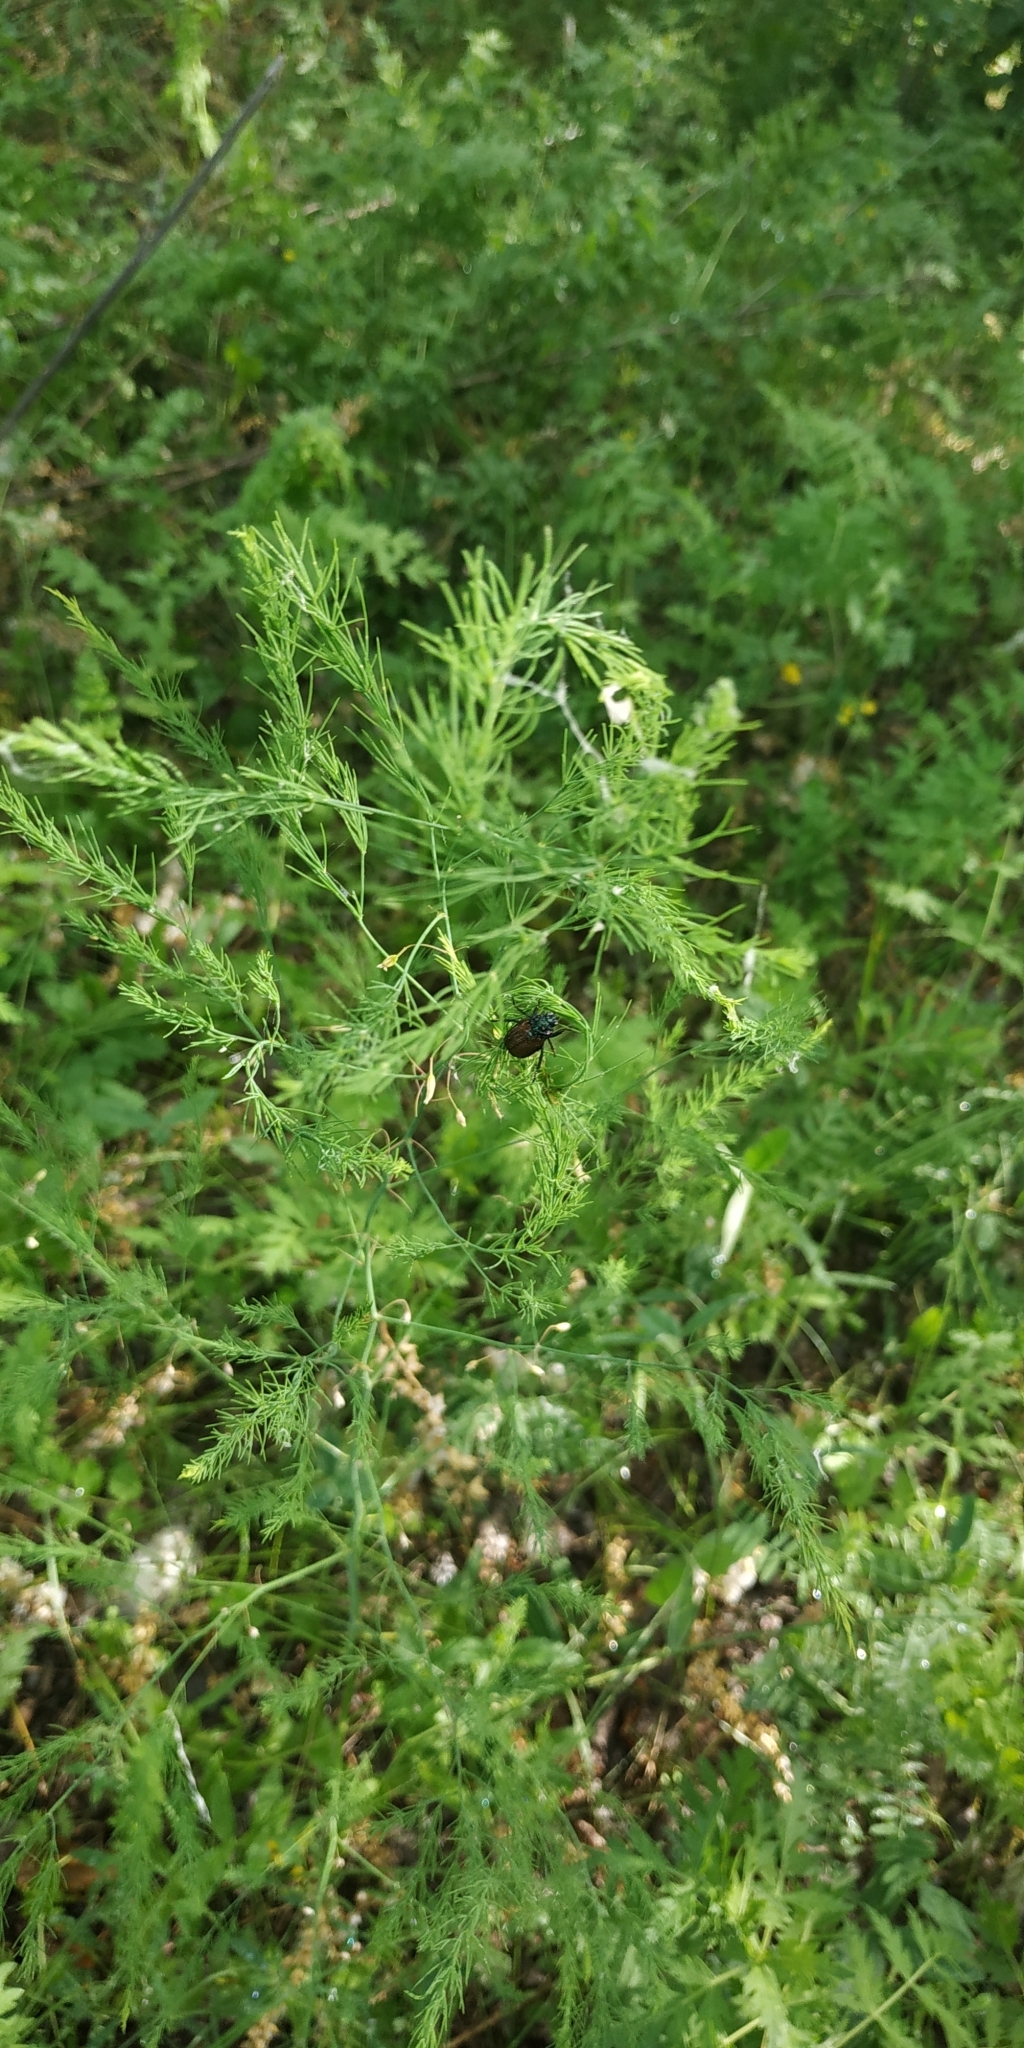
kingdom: Plantae
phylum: Tracheophyta
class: Liliopsida
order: Asparagales
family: Asparagaceae
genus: Asparagus
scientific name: Asparagus officinalis
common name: Garden asparagus
